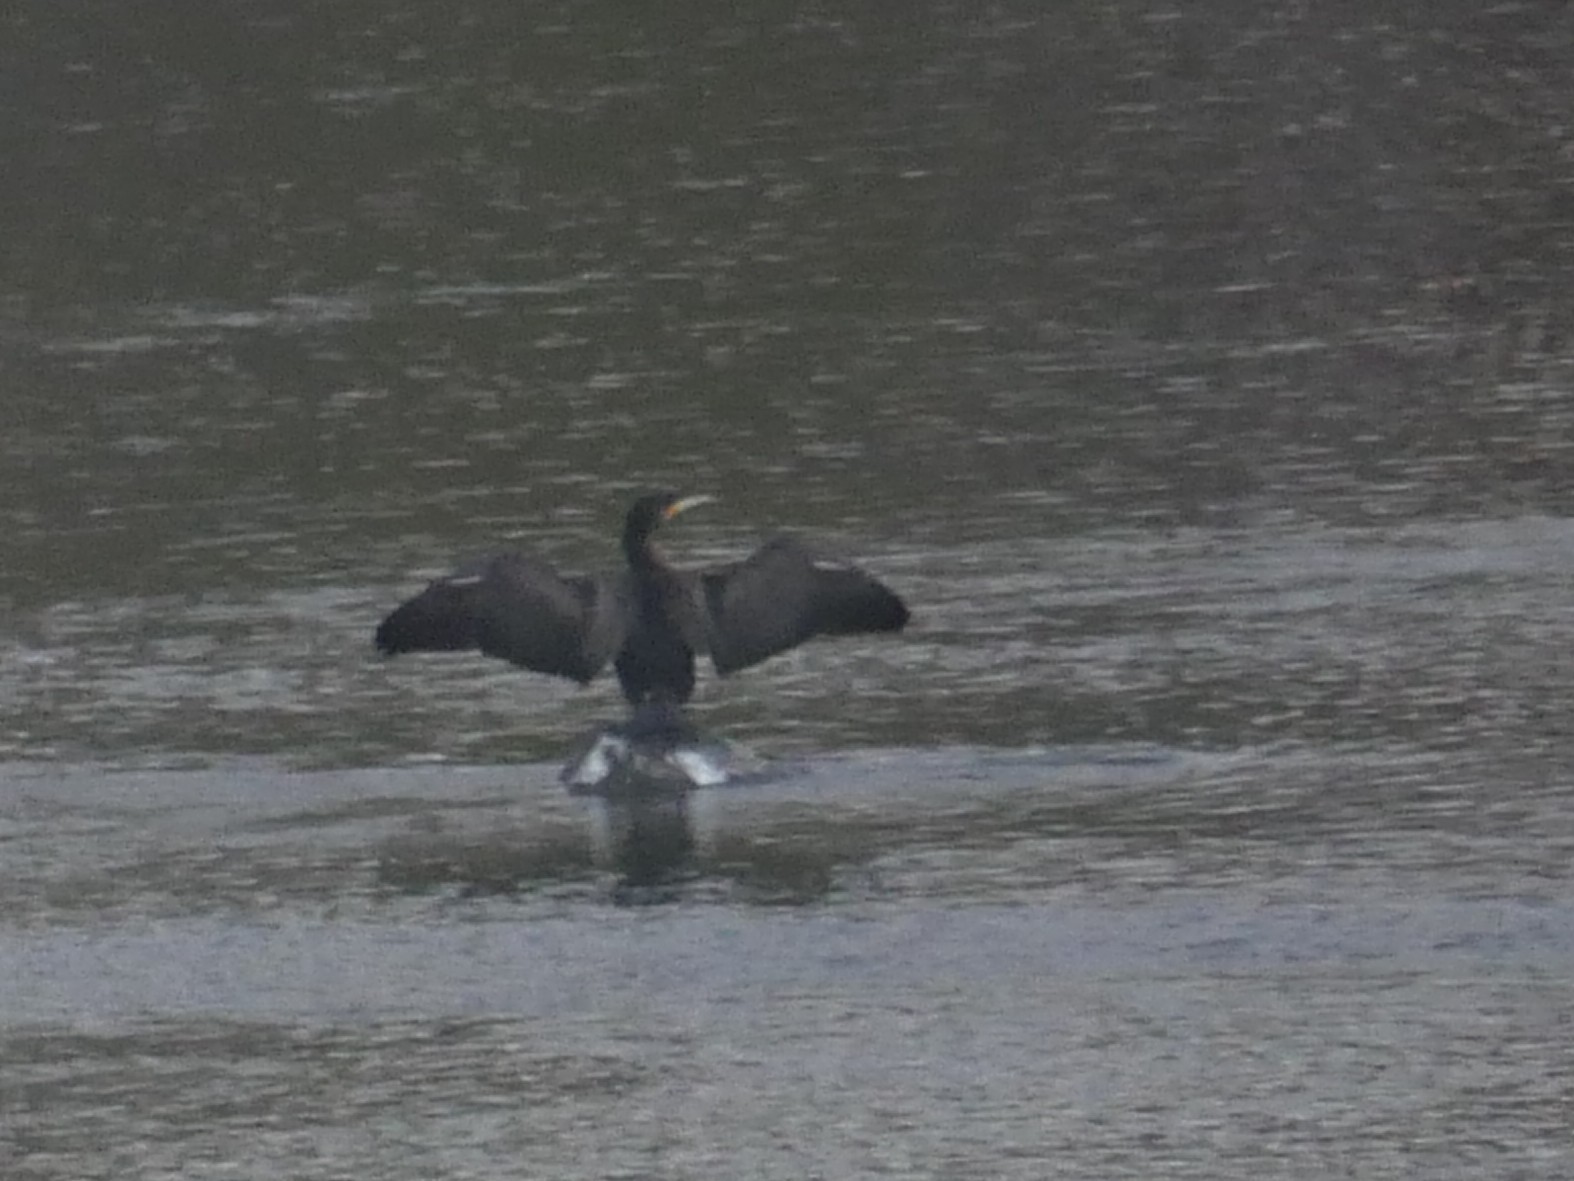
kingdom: Animalia
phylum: Chordata
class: Aves
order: Suliformes
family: Phalacrocoracidae
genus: Phalacrocorax
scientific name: Phalacrocorax carbo
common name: Great cormorant
